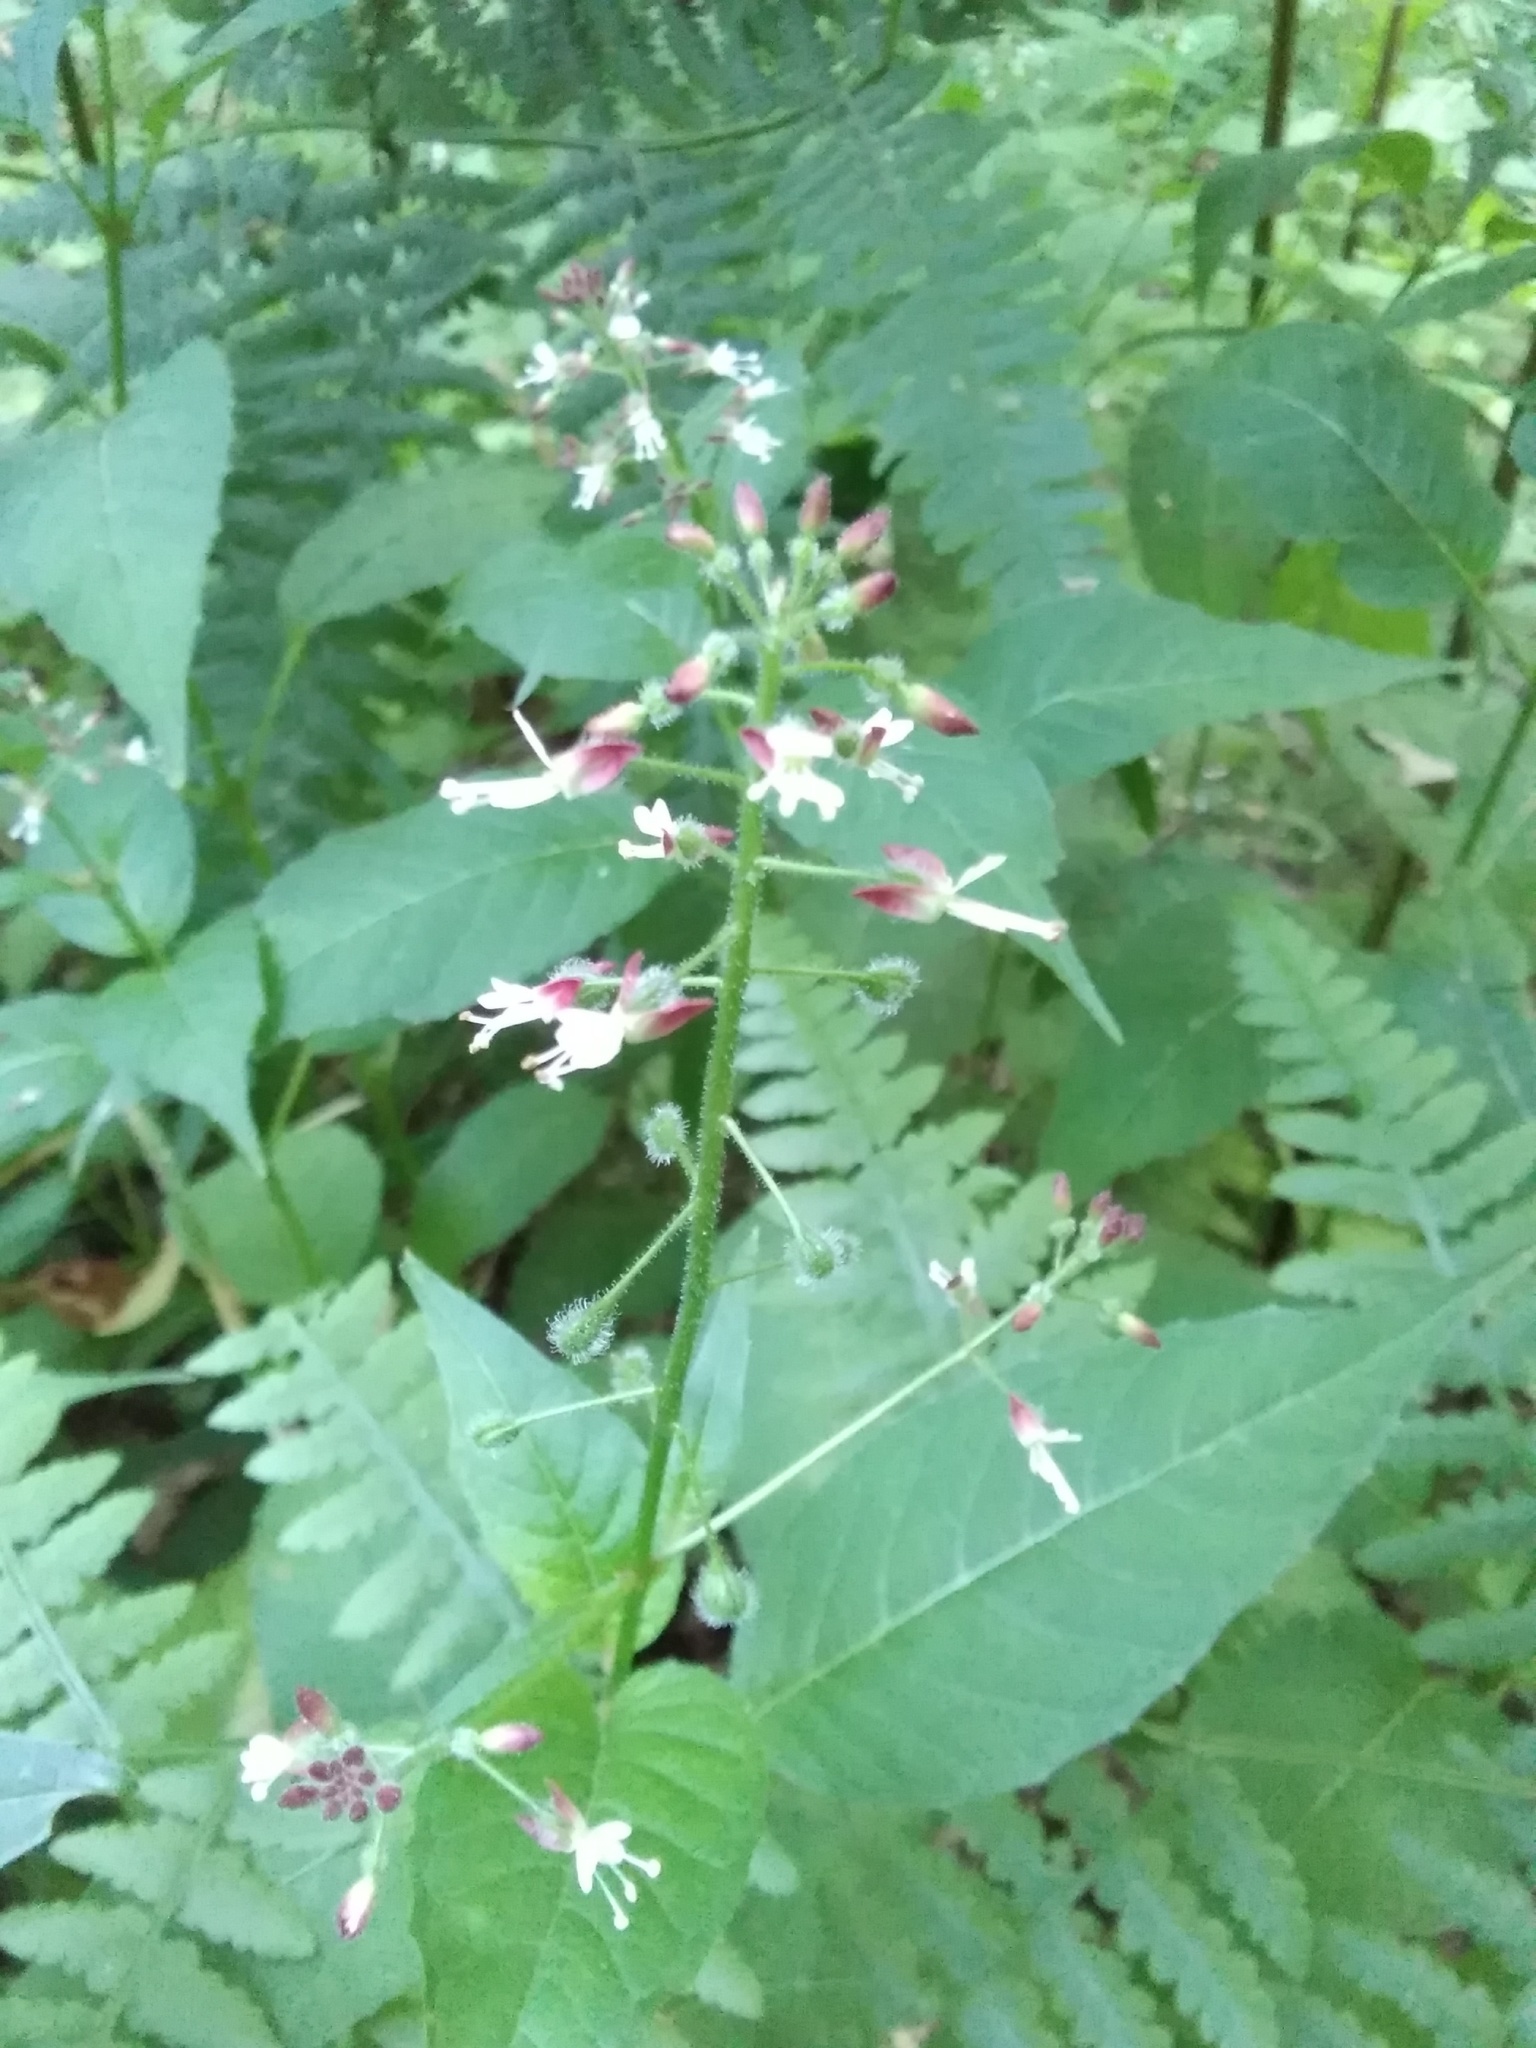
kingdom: Plantae
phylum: Tracheophyta
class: Magnoliopsida
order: Myrtales
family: Onagraceae
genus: Circaea
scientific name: Circaea canadensis
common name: Broad-leaved enchanter's nightshade
